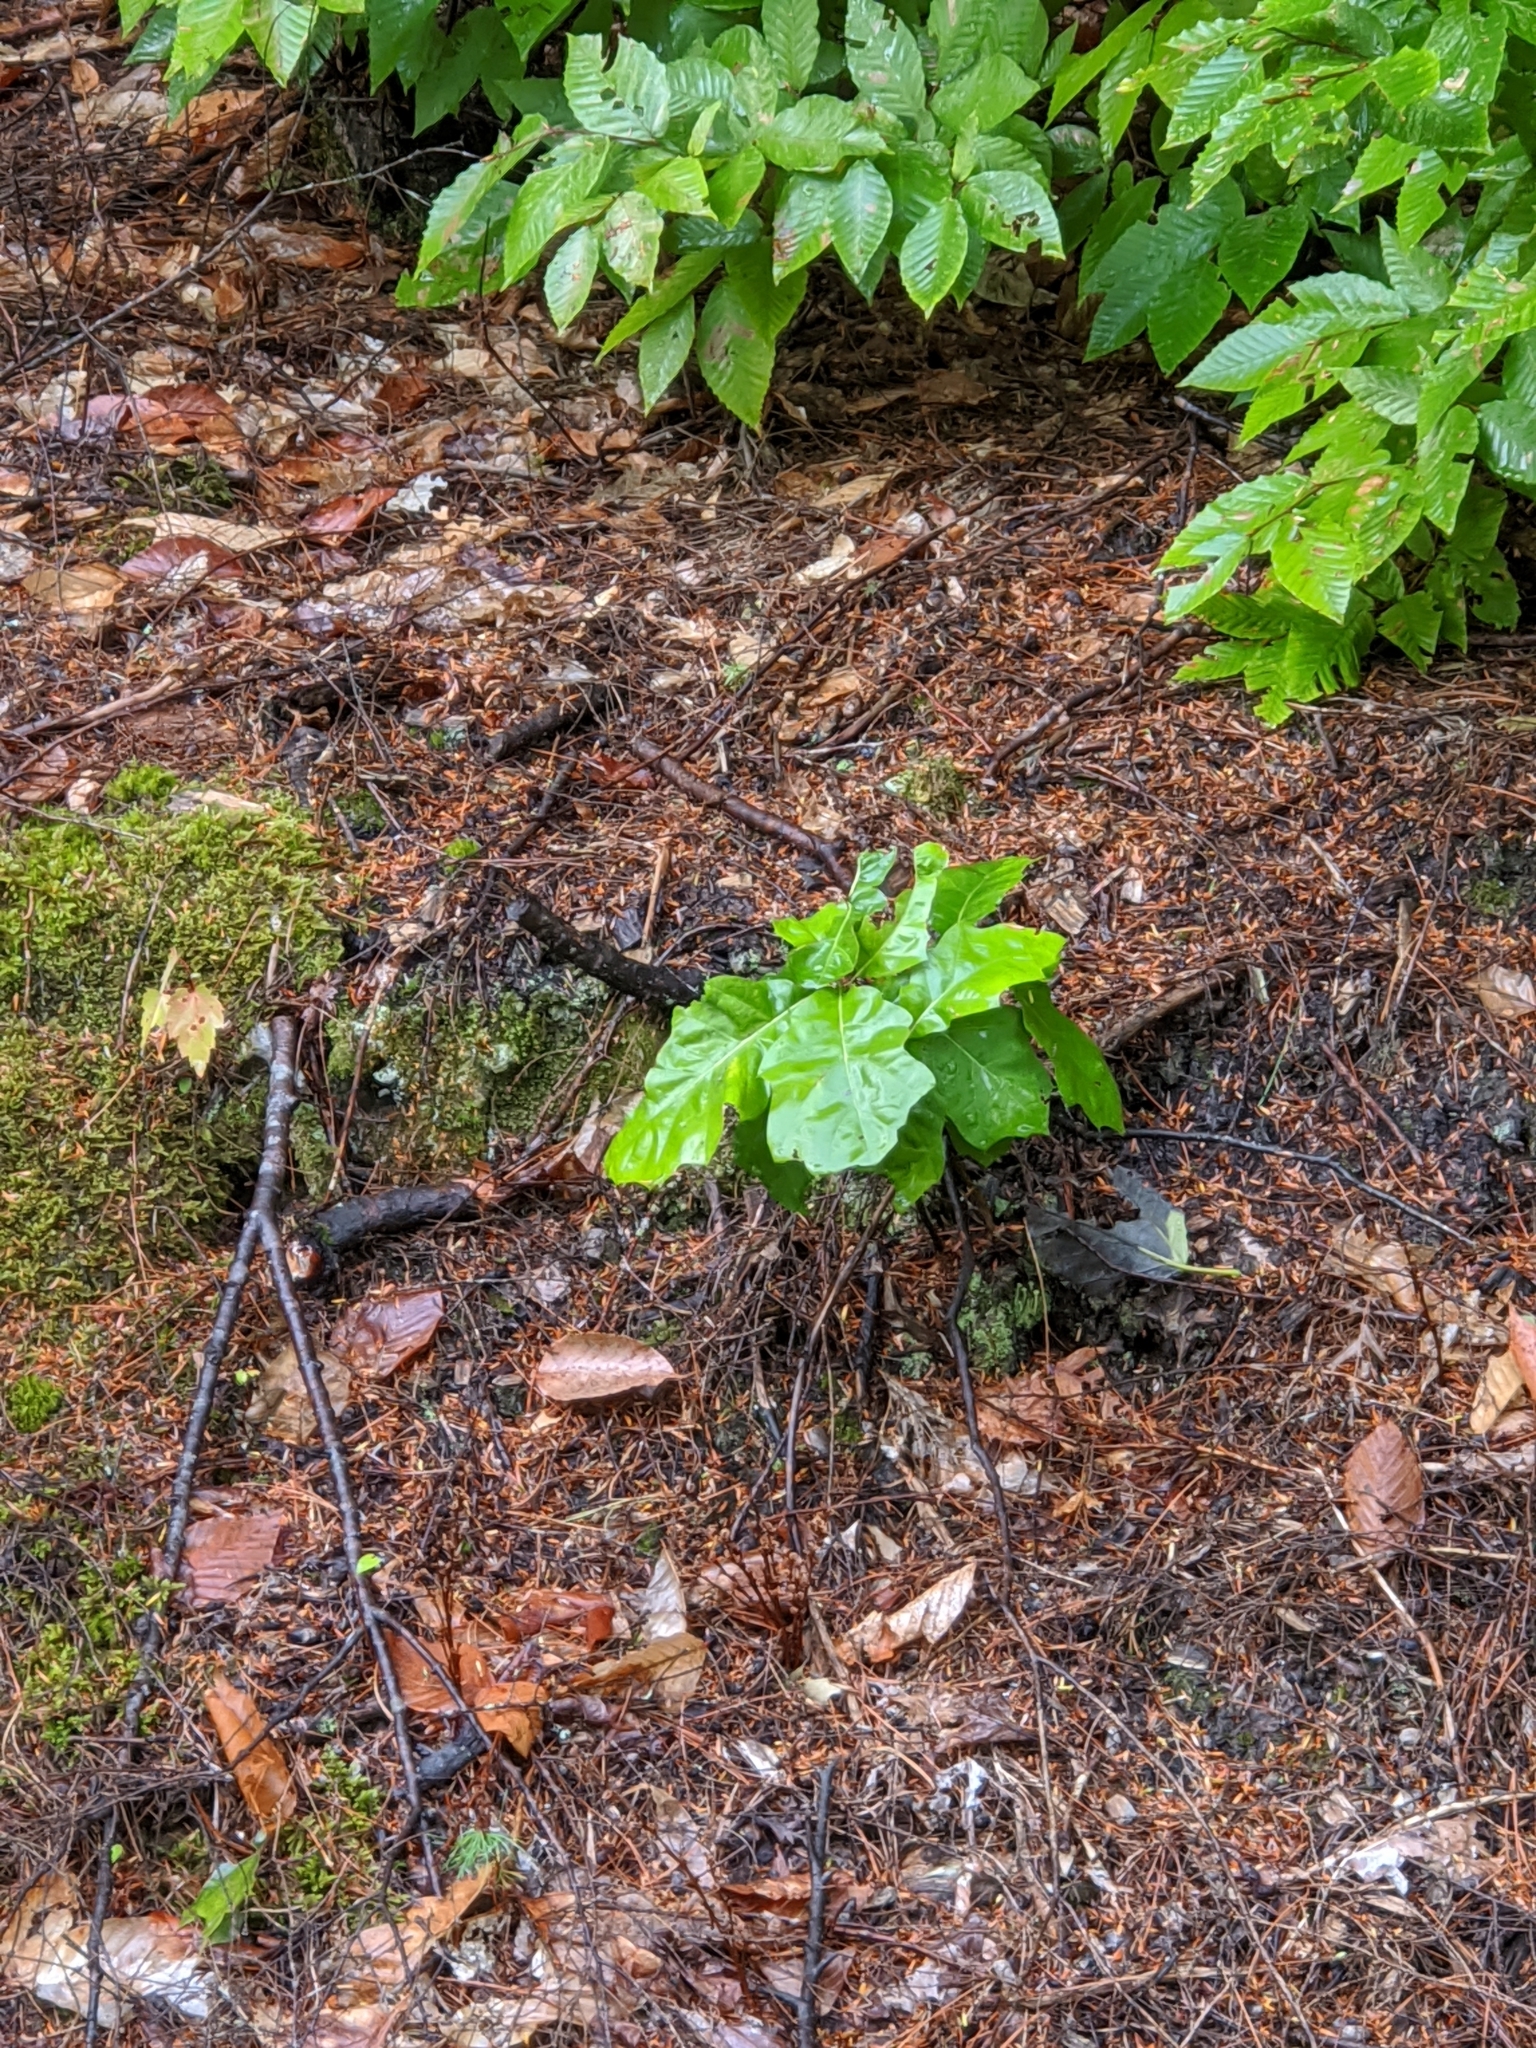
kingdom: Plantae
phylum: Tracheophyta
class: Magnoliopsida
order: Fagales
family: Fagaceae
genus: Quercus
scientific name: Quercus rubra
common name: Red oak
